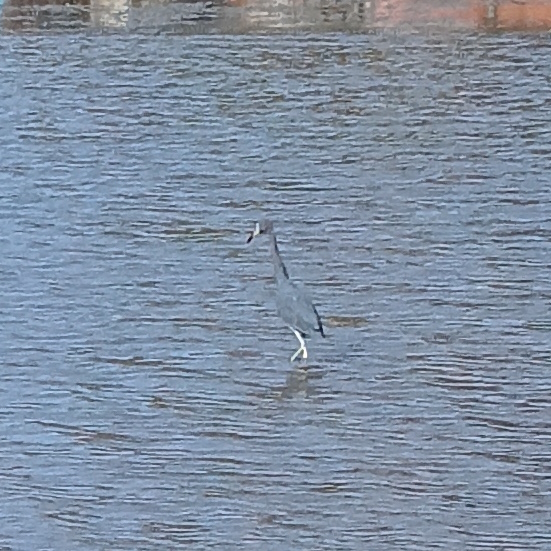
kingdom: Animalia
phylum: Chordata
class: Aves
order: Pelecaniformes
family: Ardeidae
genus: Egretta
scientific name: Egretta caerulea
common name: Little blue heron
